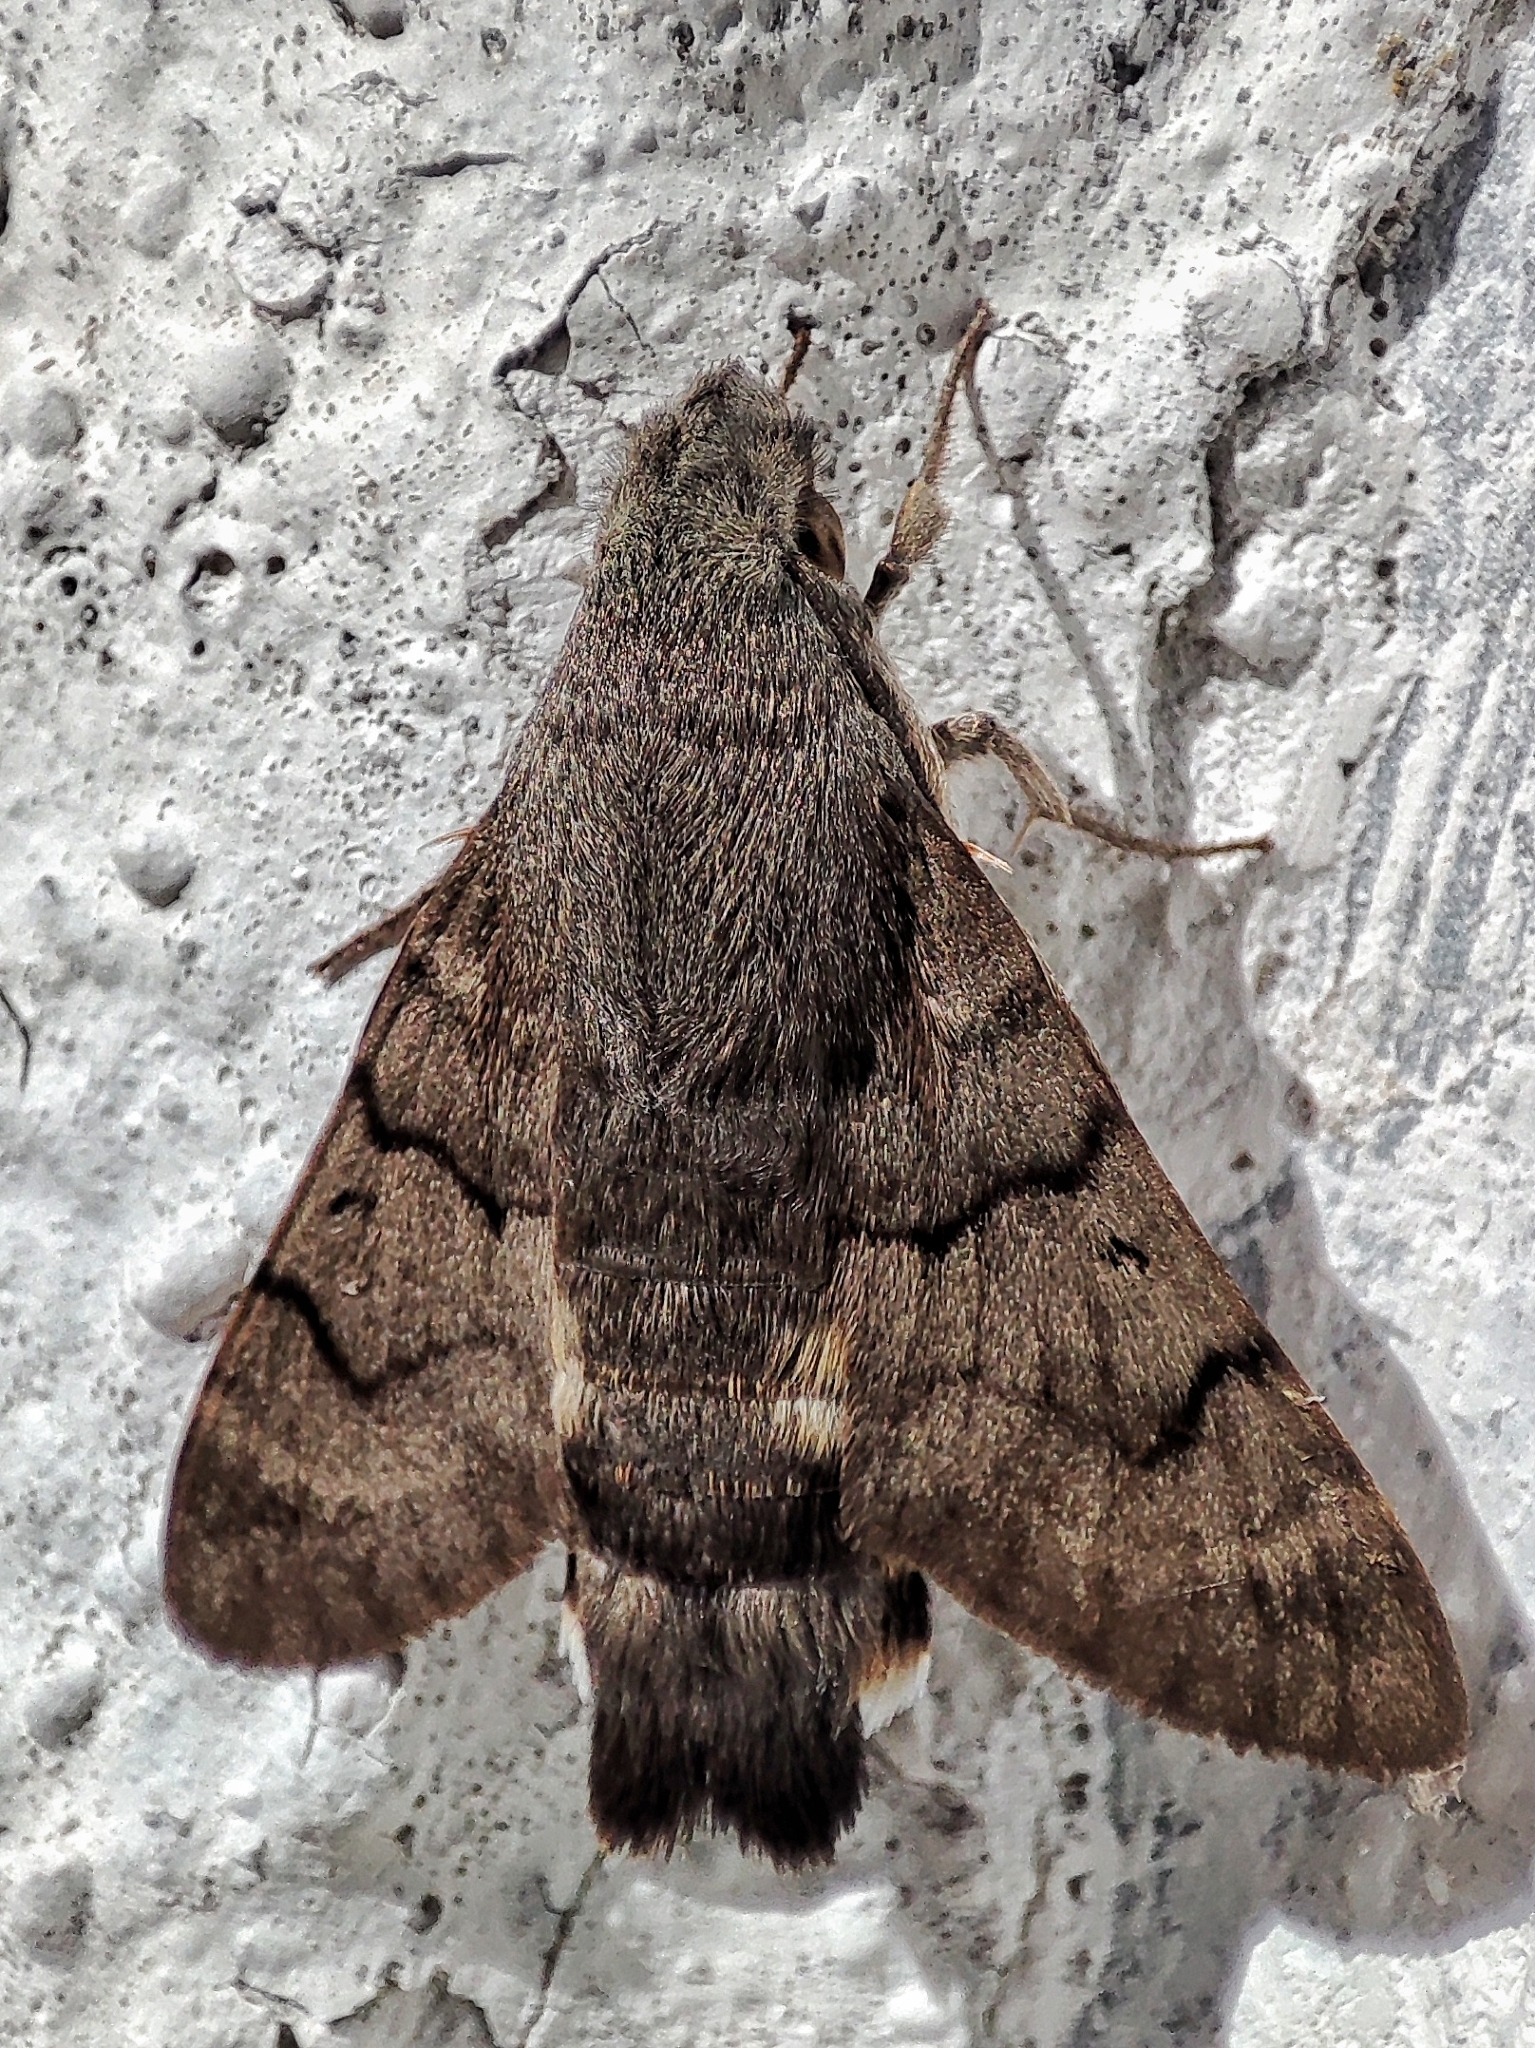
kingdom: Animalia
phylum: Arthropoda
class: Insecta
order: Lepidoptera
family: Sphingidae
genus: Macroglossum
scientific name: Macroglossum stellatarum
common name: Humming-bird hawk-moth
